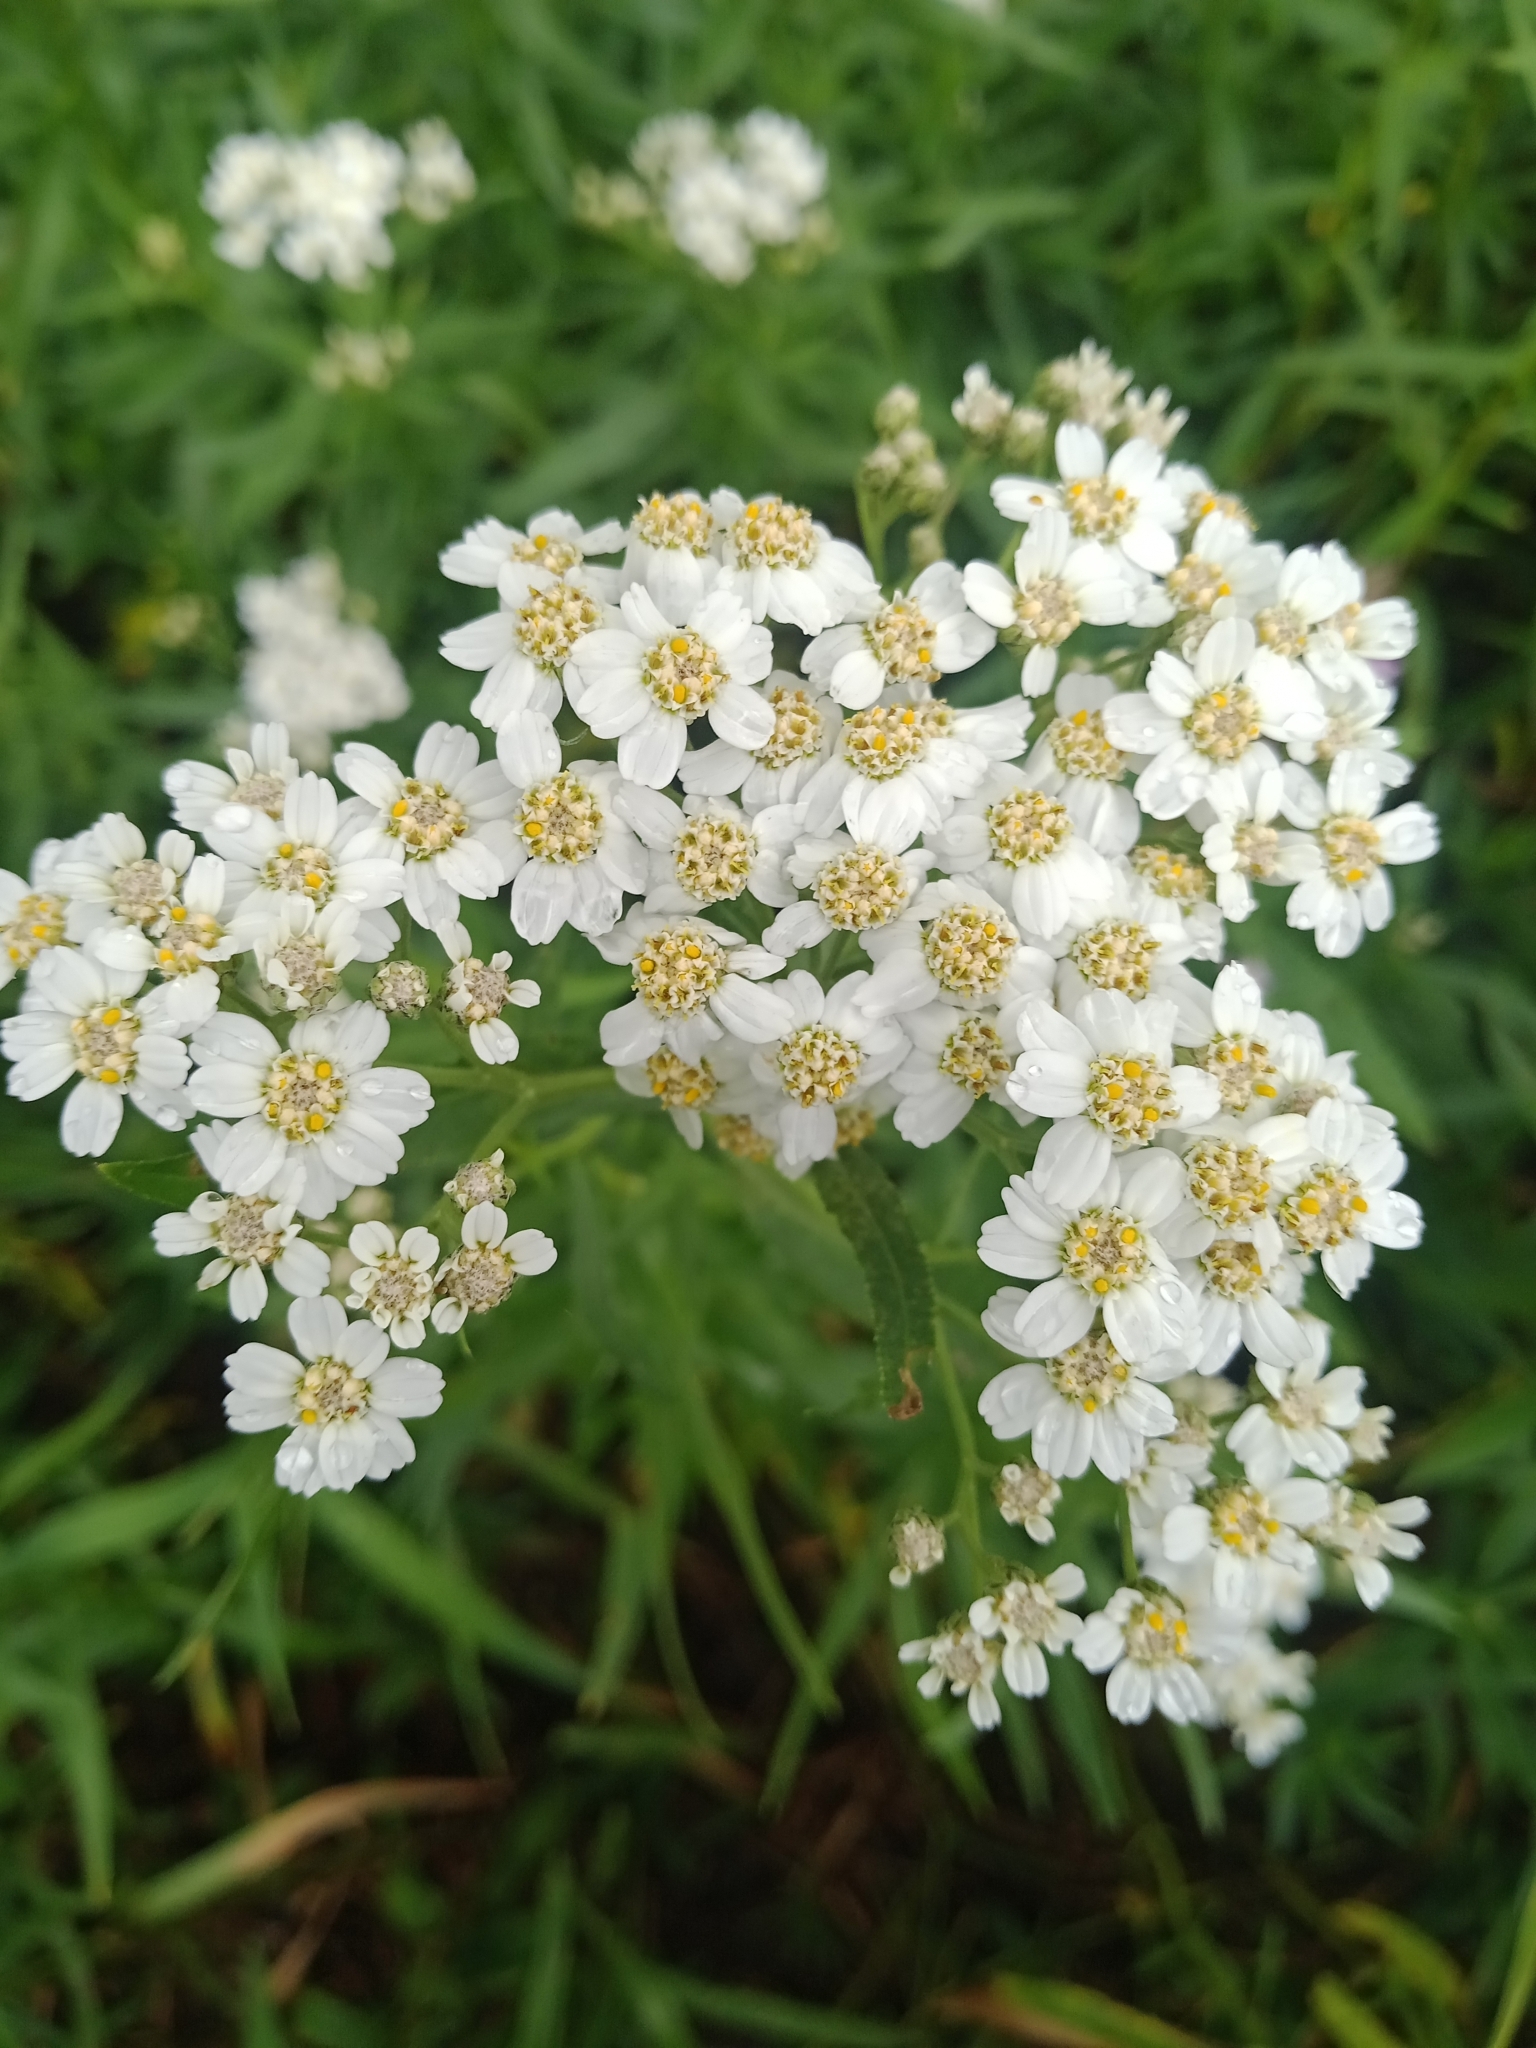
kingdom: Plantae
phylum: Tracheophyta
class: Magnoliopsida
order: Asterales
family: Asteraceae
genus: Achillea
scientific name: Achillea salicifolia
